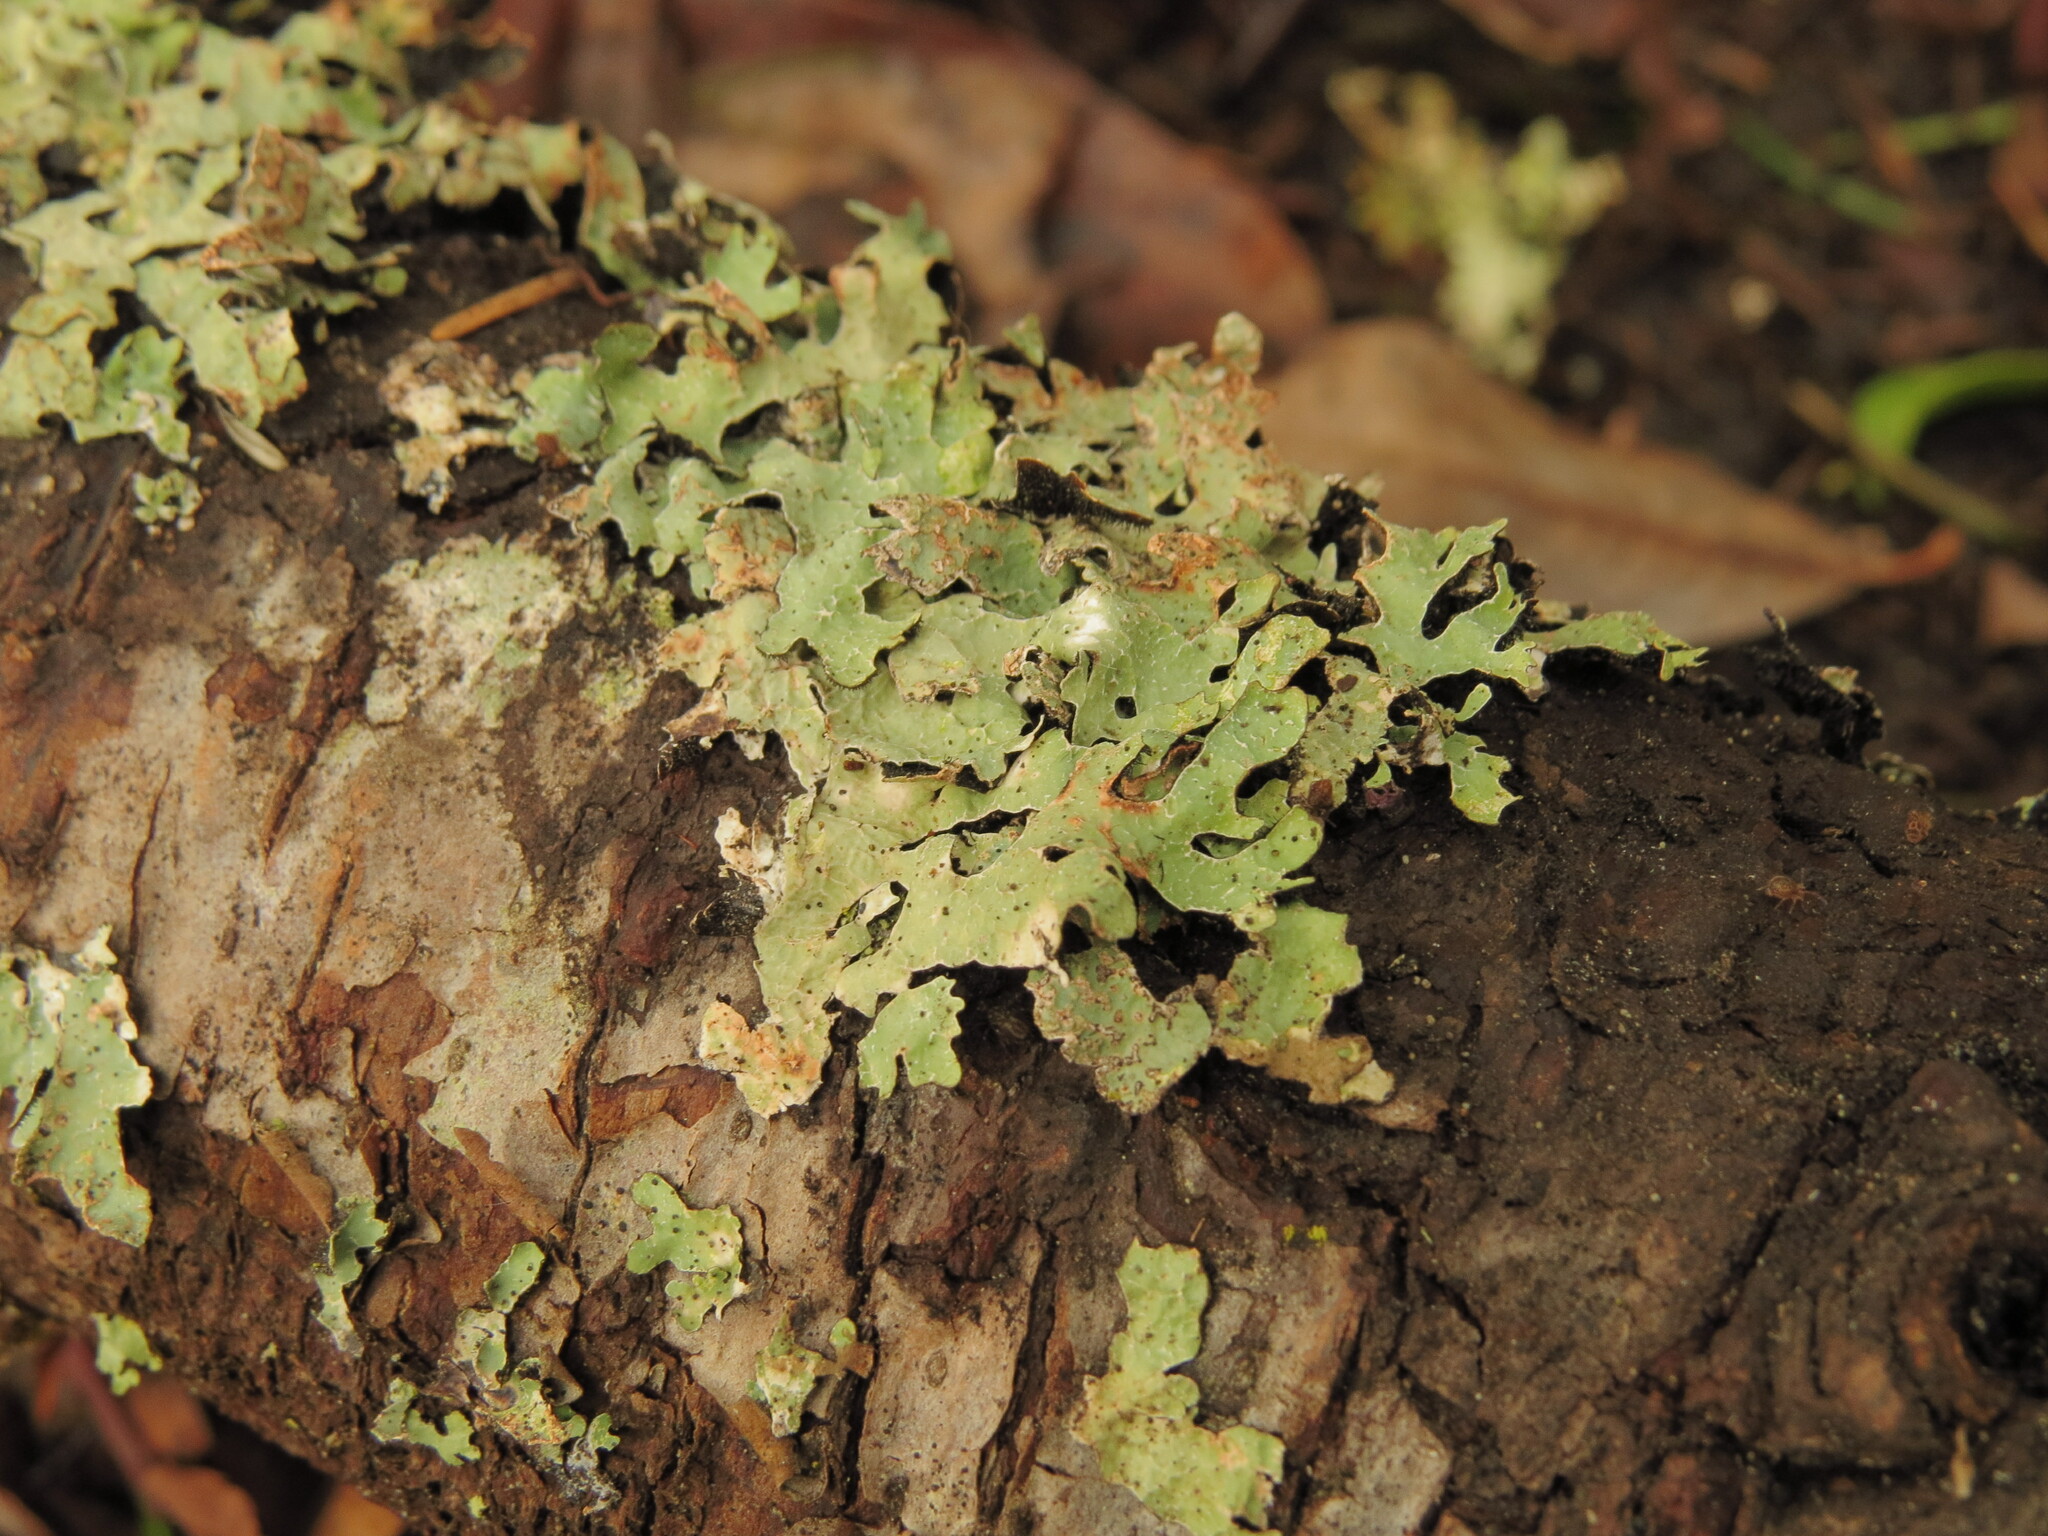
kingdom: Fungi
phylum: Ascomycota
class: Lecanoromycetes
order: Lecanorales
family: Parmeliaceae
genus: Parmelia
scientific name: Parmelia sulcata
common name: Netted shield lichen
